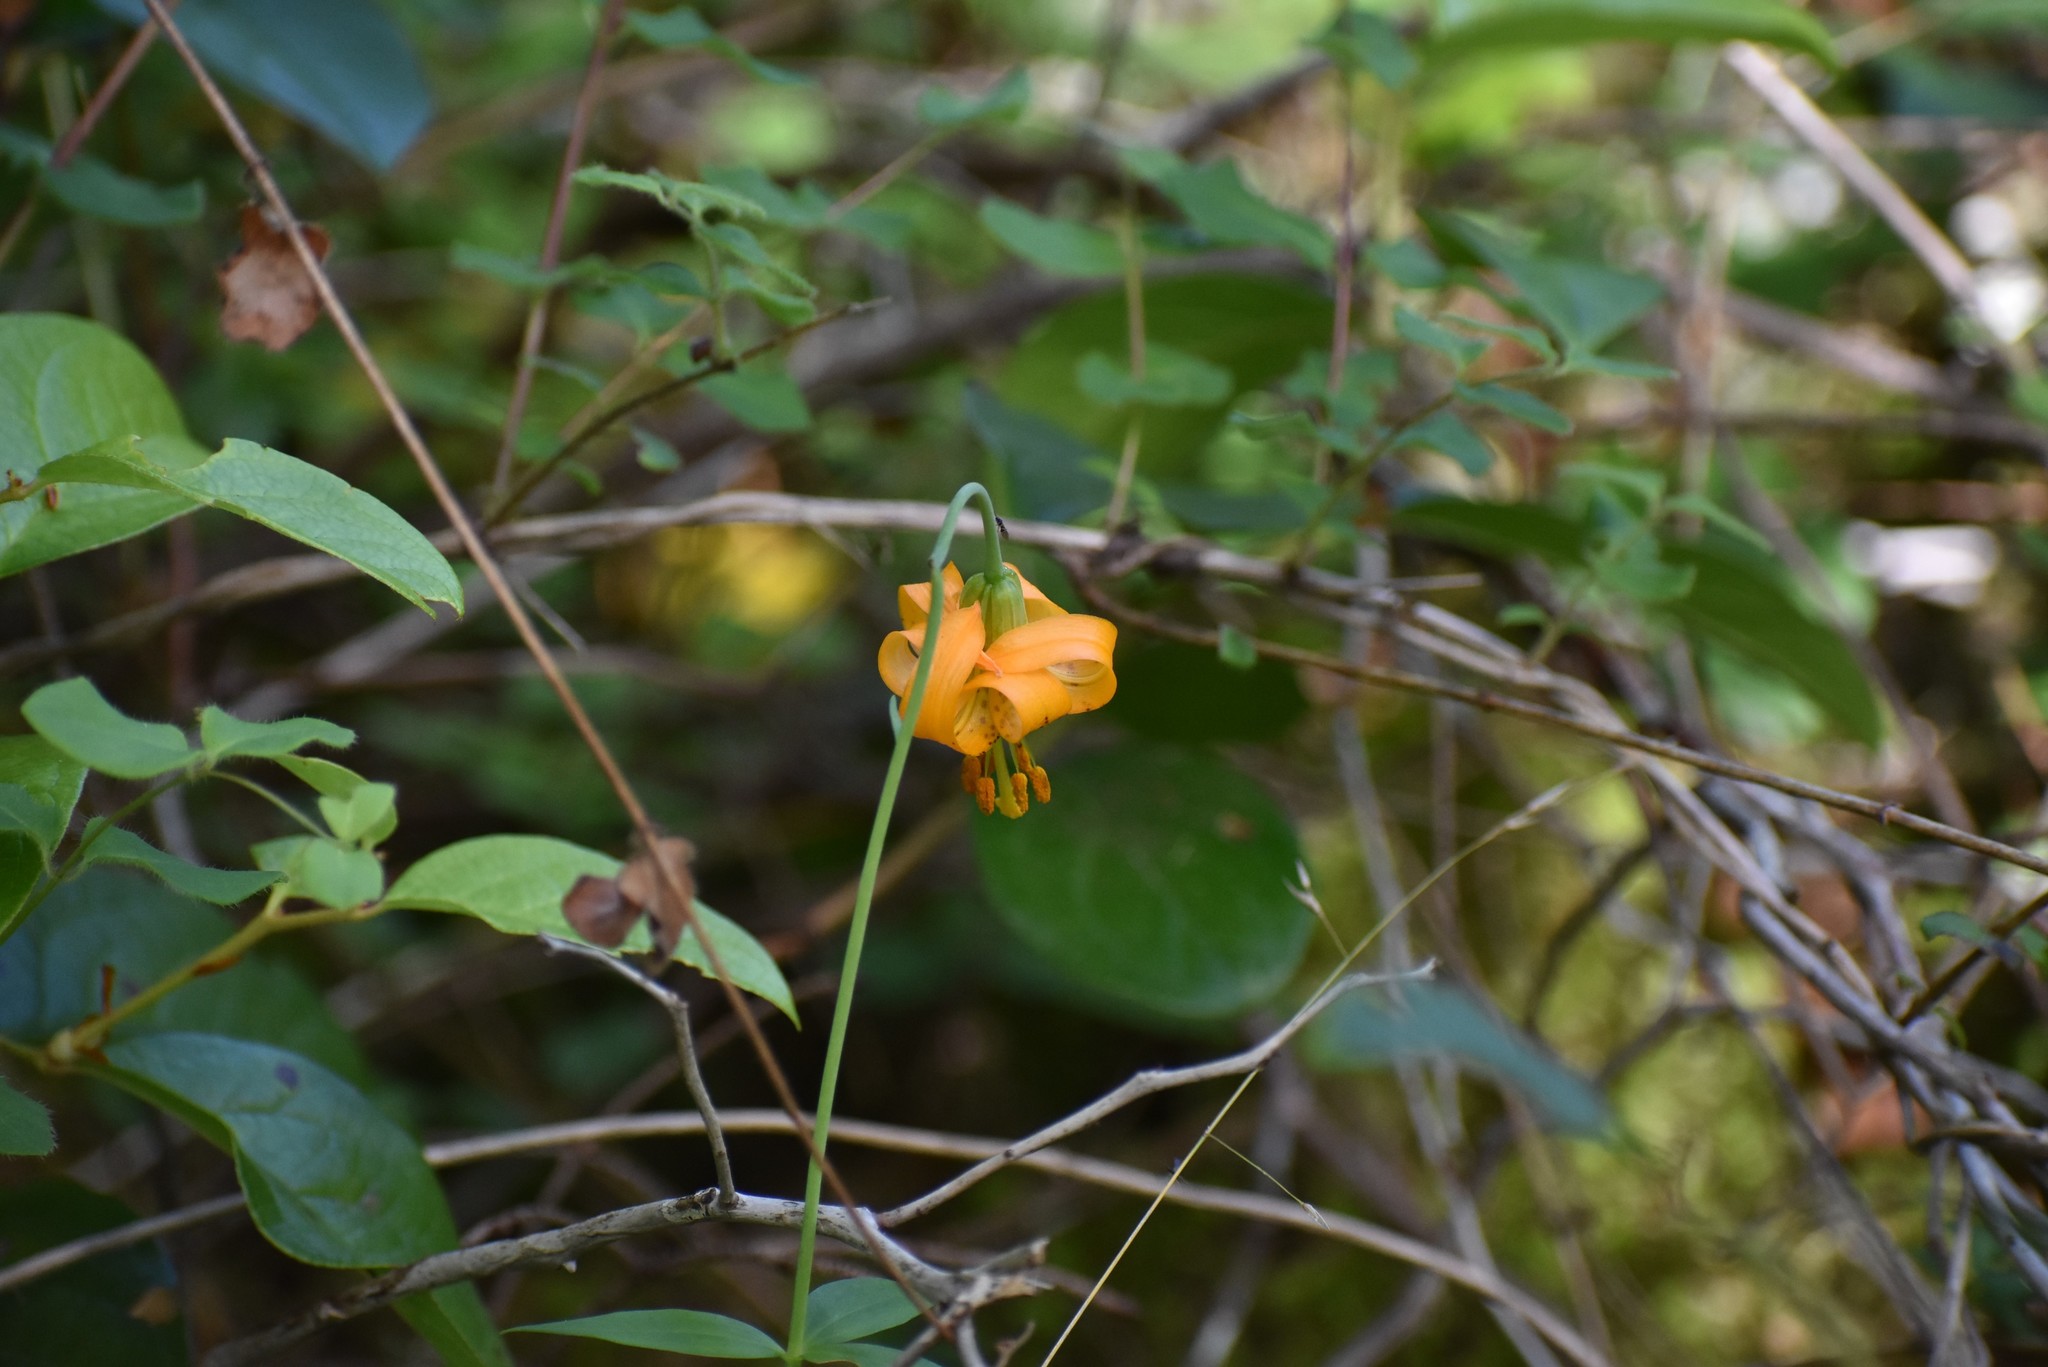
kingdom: Plantae
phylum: Tracheophyta
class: Liliopsida
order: Liliales
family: Liliaceae
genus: Lilium
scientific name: Lilium columbianum
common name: Columbia lily
